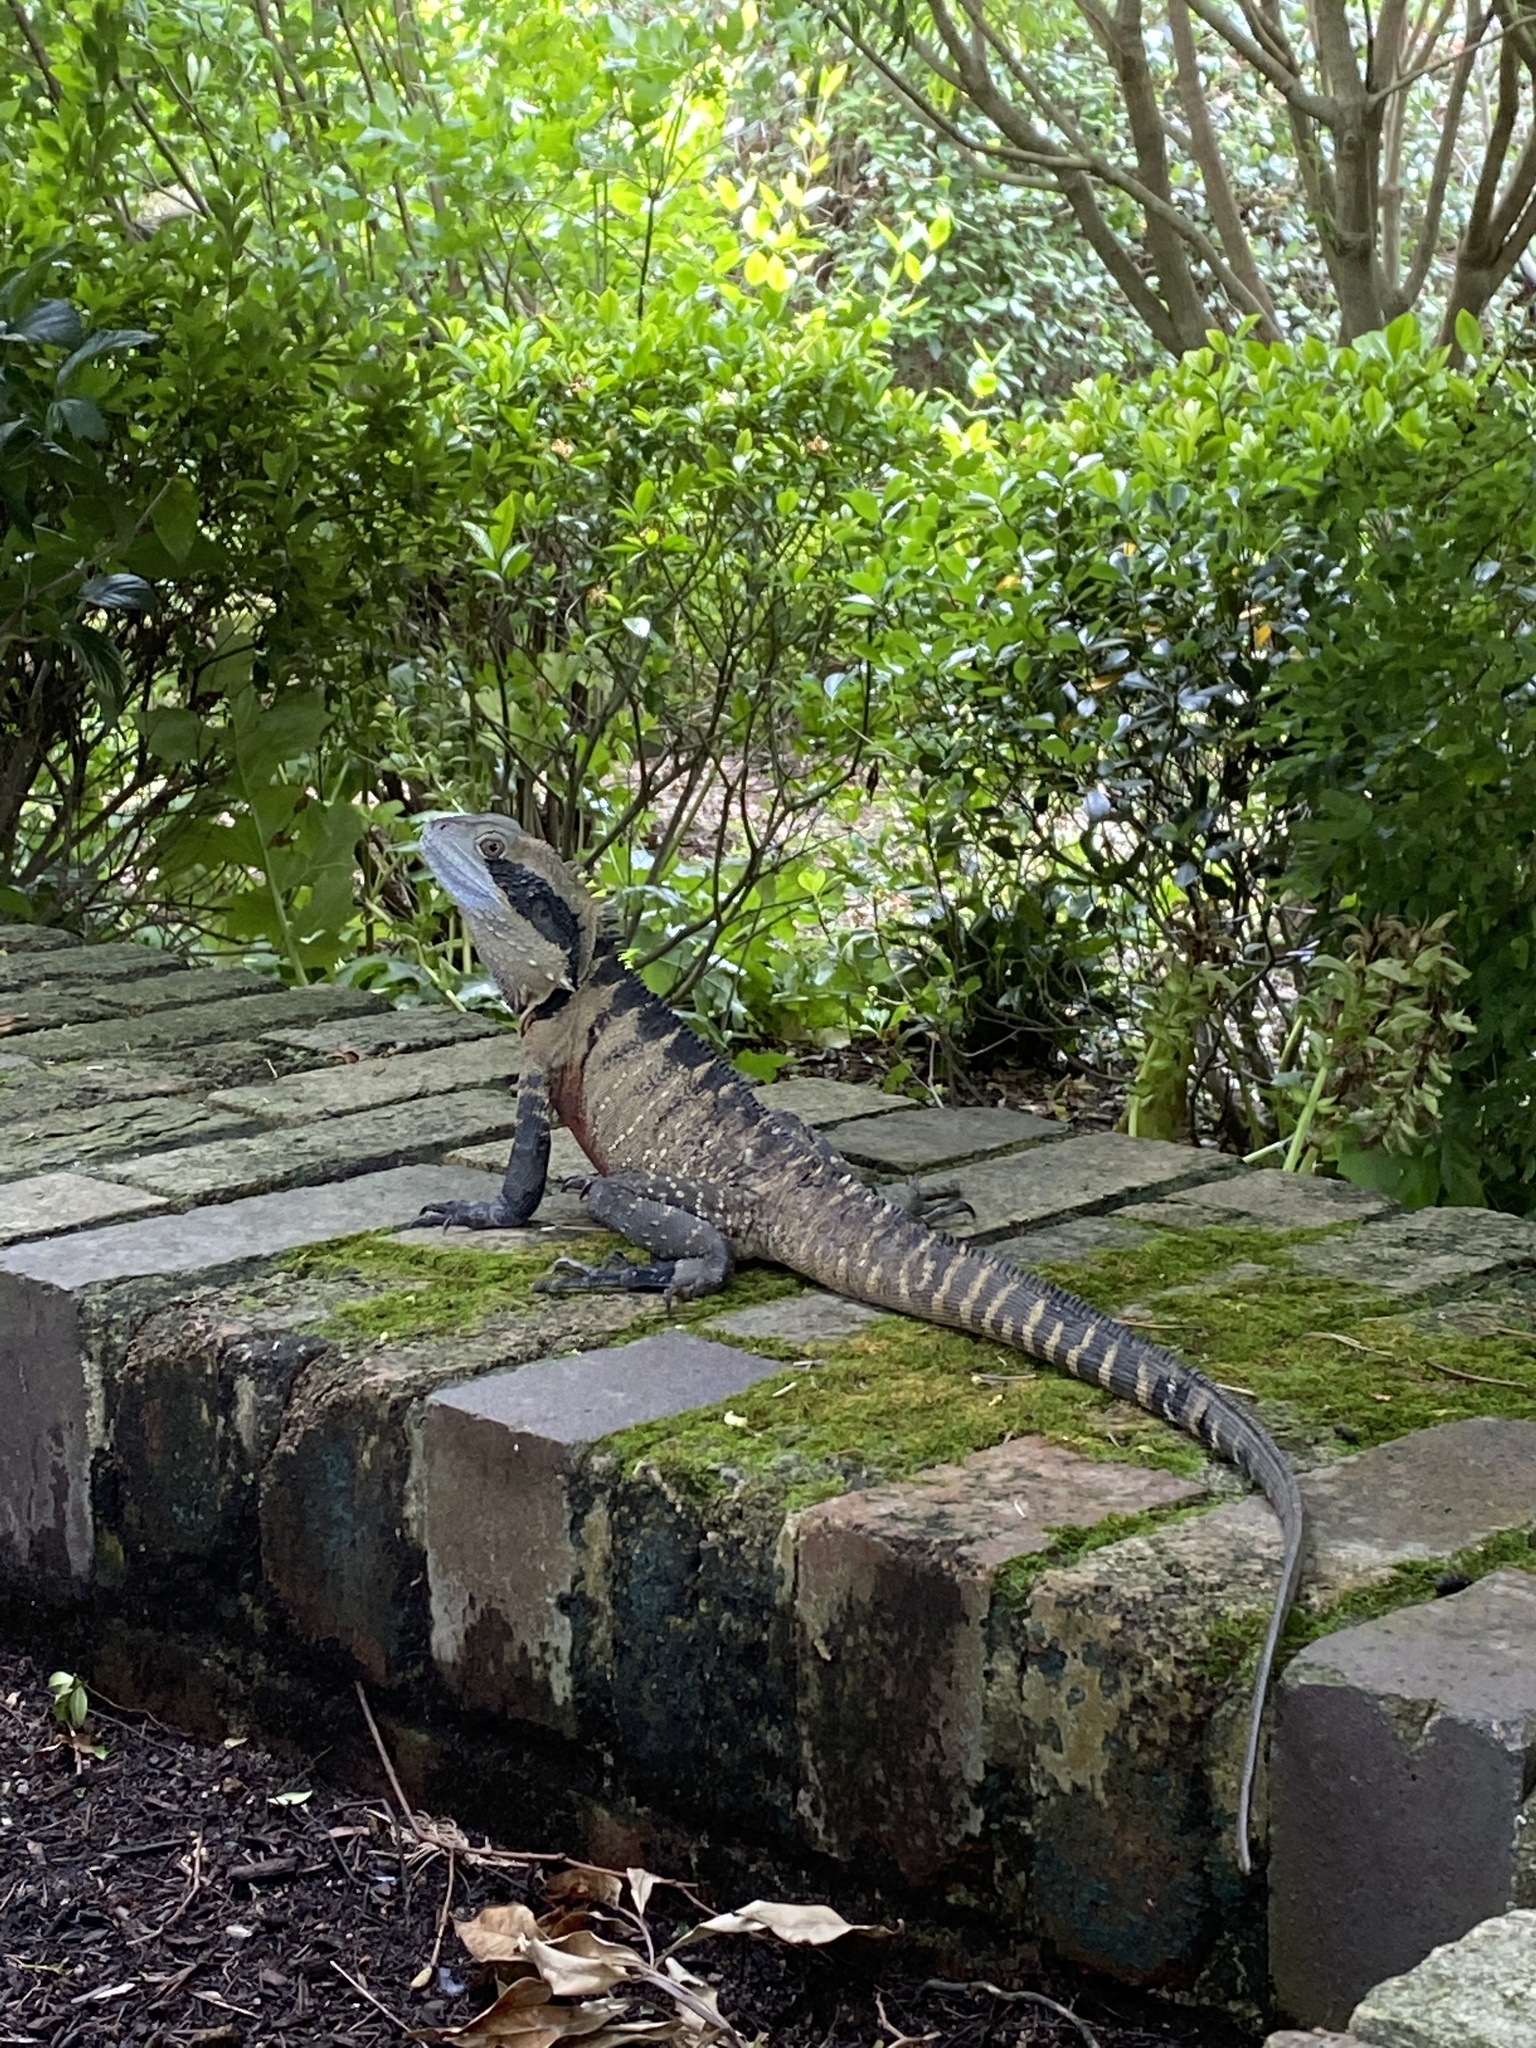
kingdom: Animalia
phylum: Chordata
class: Squamata
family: Agamidae
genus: Intellagama
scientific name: Intellagama lesueurii
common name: Eastern water dragon
